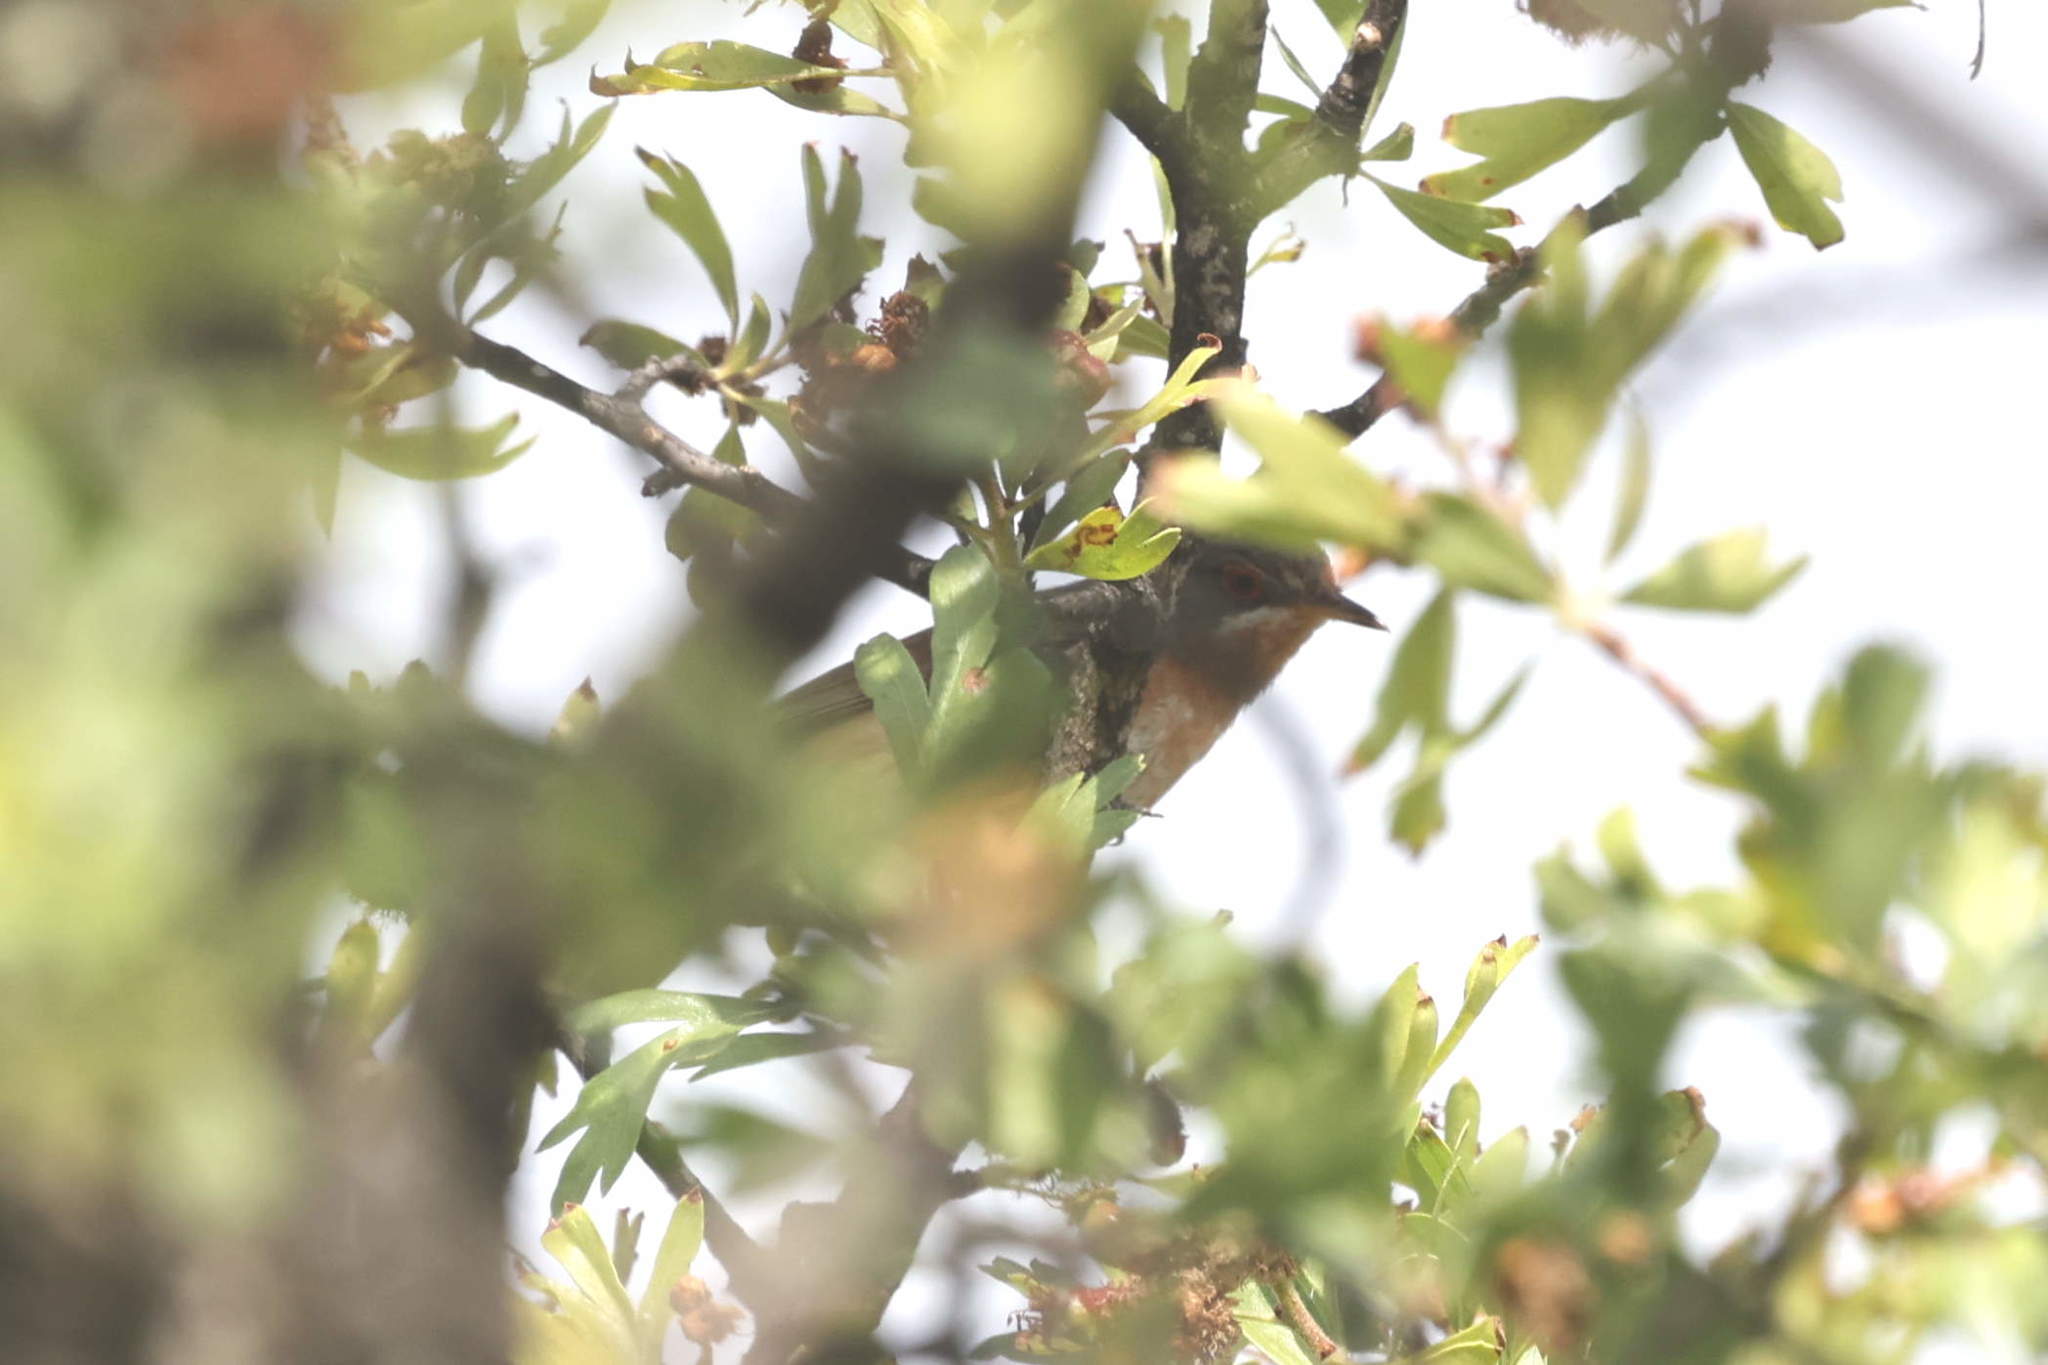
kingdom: Animalia
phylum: Chordata
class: Aves
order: Passeriformes
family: Sylviidae
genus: Curruca
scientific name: Curruca iberiae
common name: Western subalpine warbler
